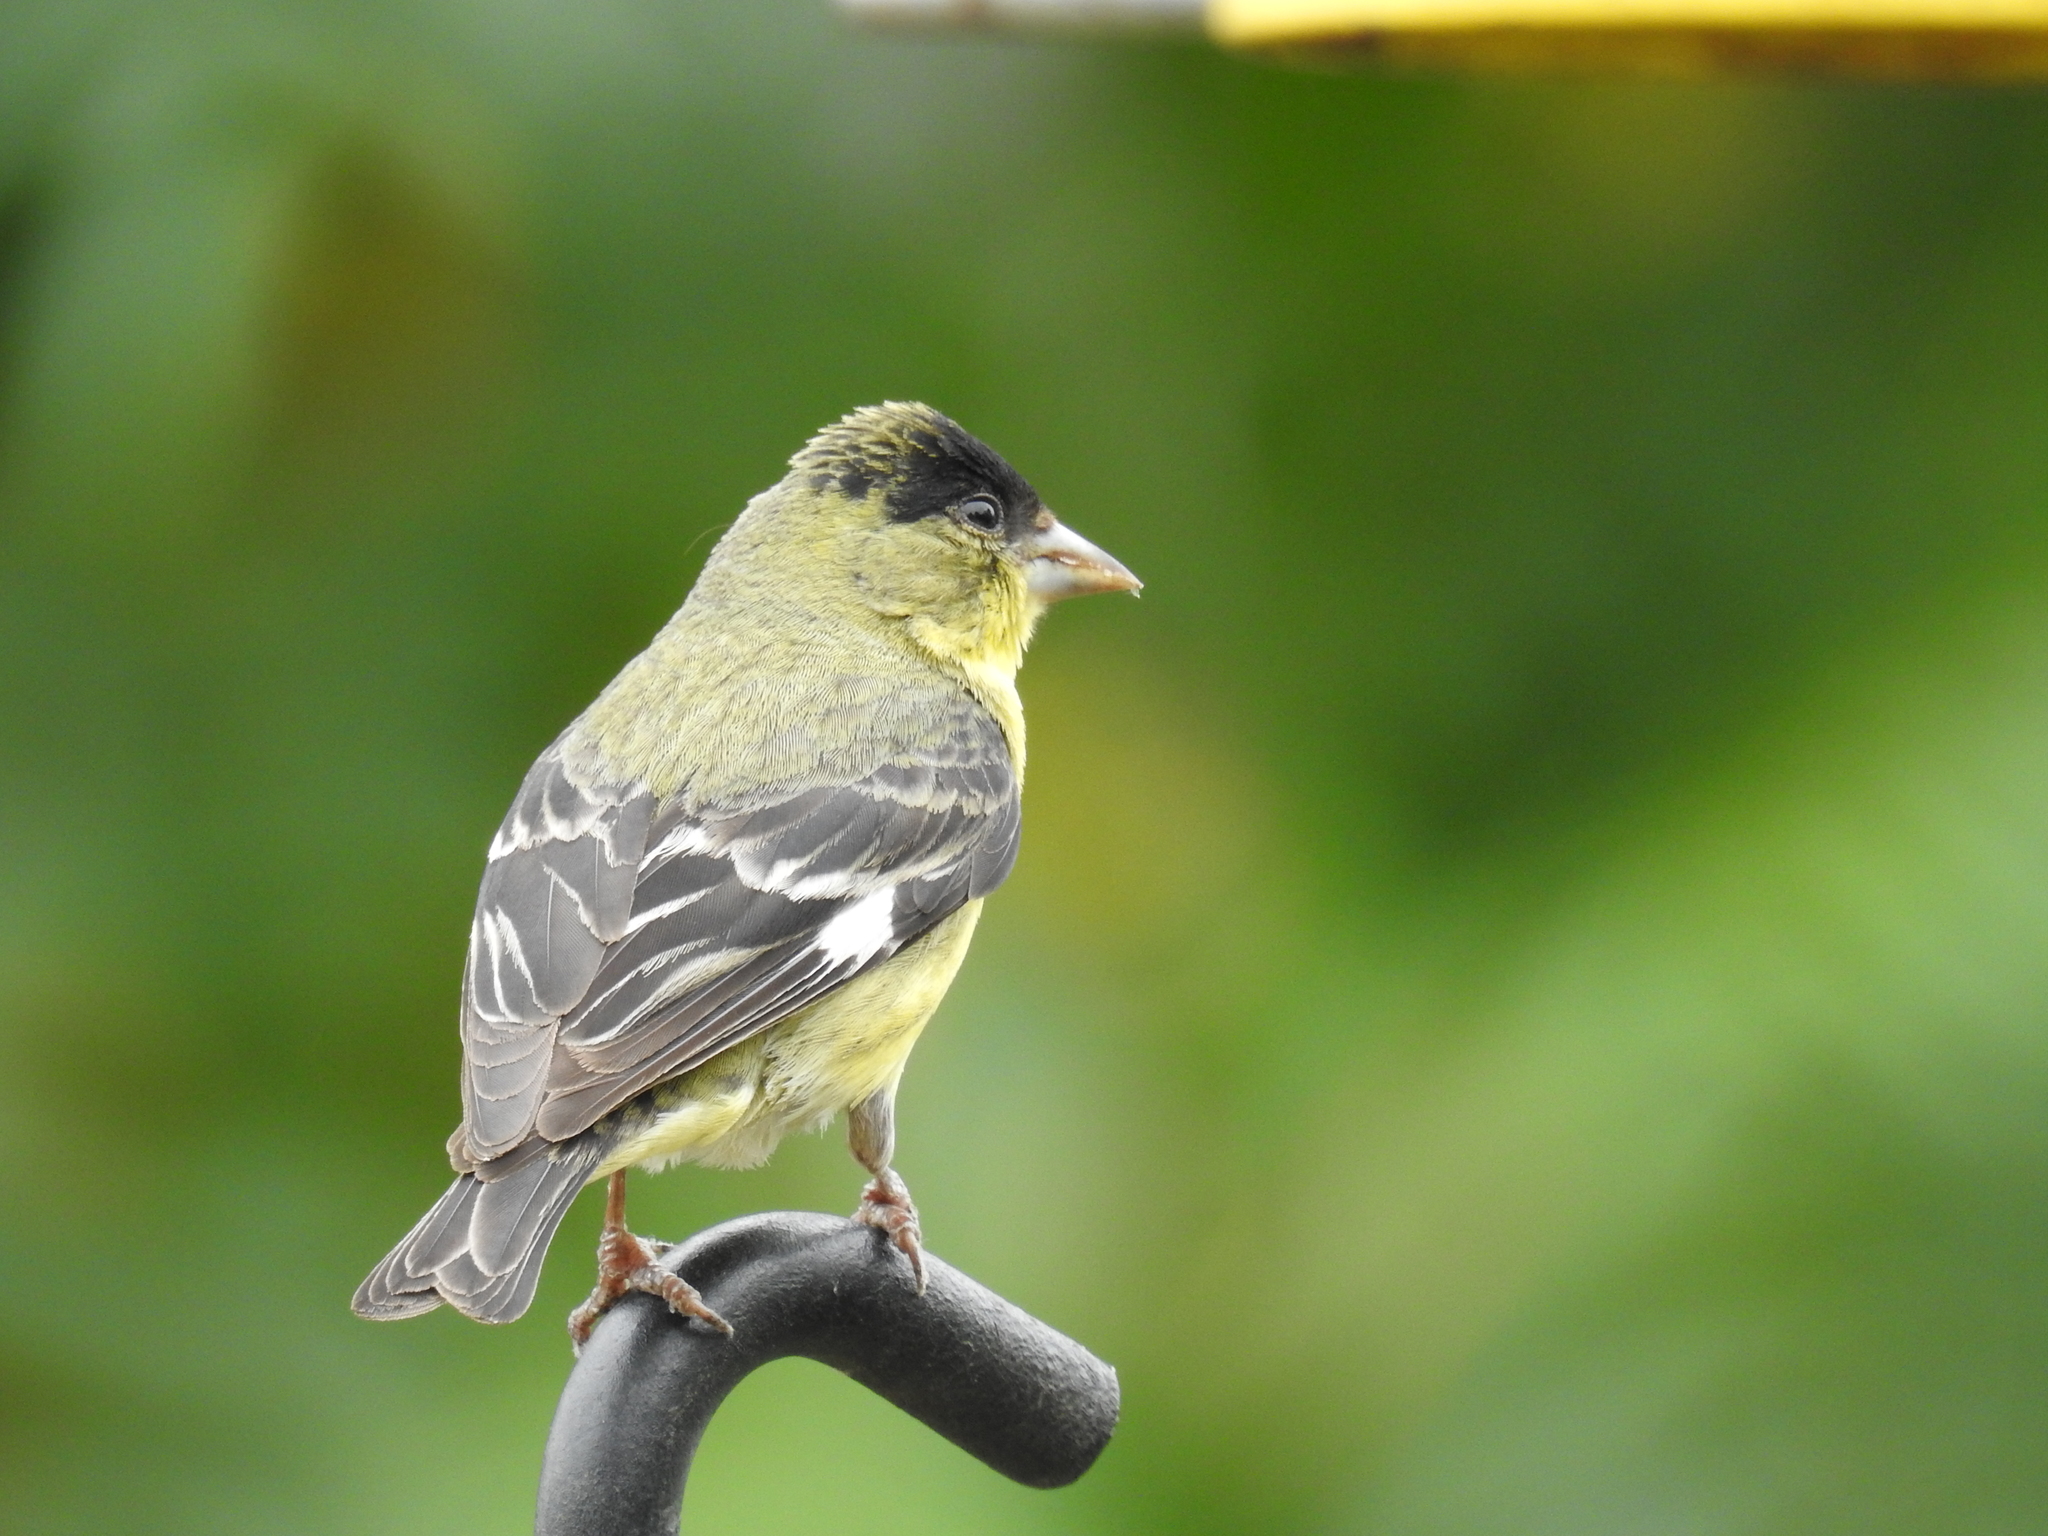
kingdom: Animalia
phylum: Chordata
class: Aves
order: Passeriformes
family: Fringillidae
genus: Spinus
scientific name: Spinus psaltria
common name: Lesser goldfinch
